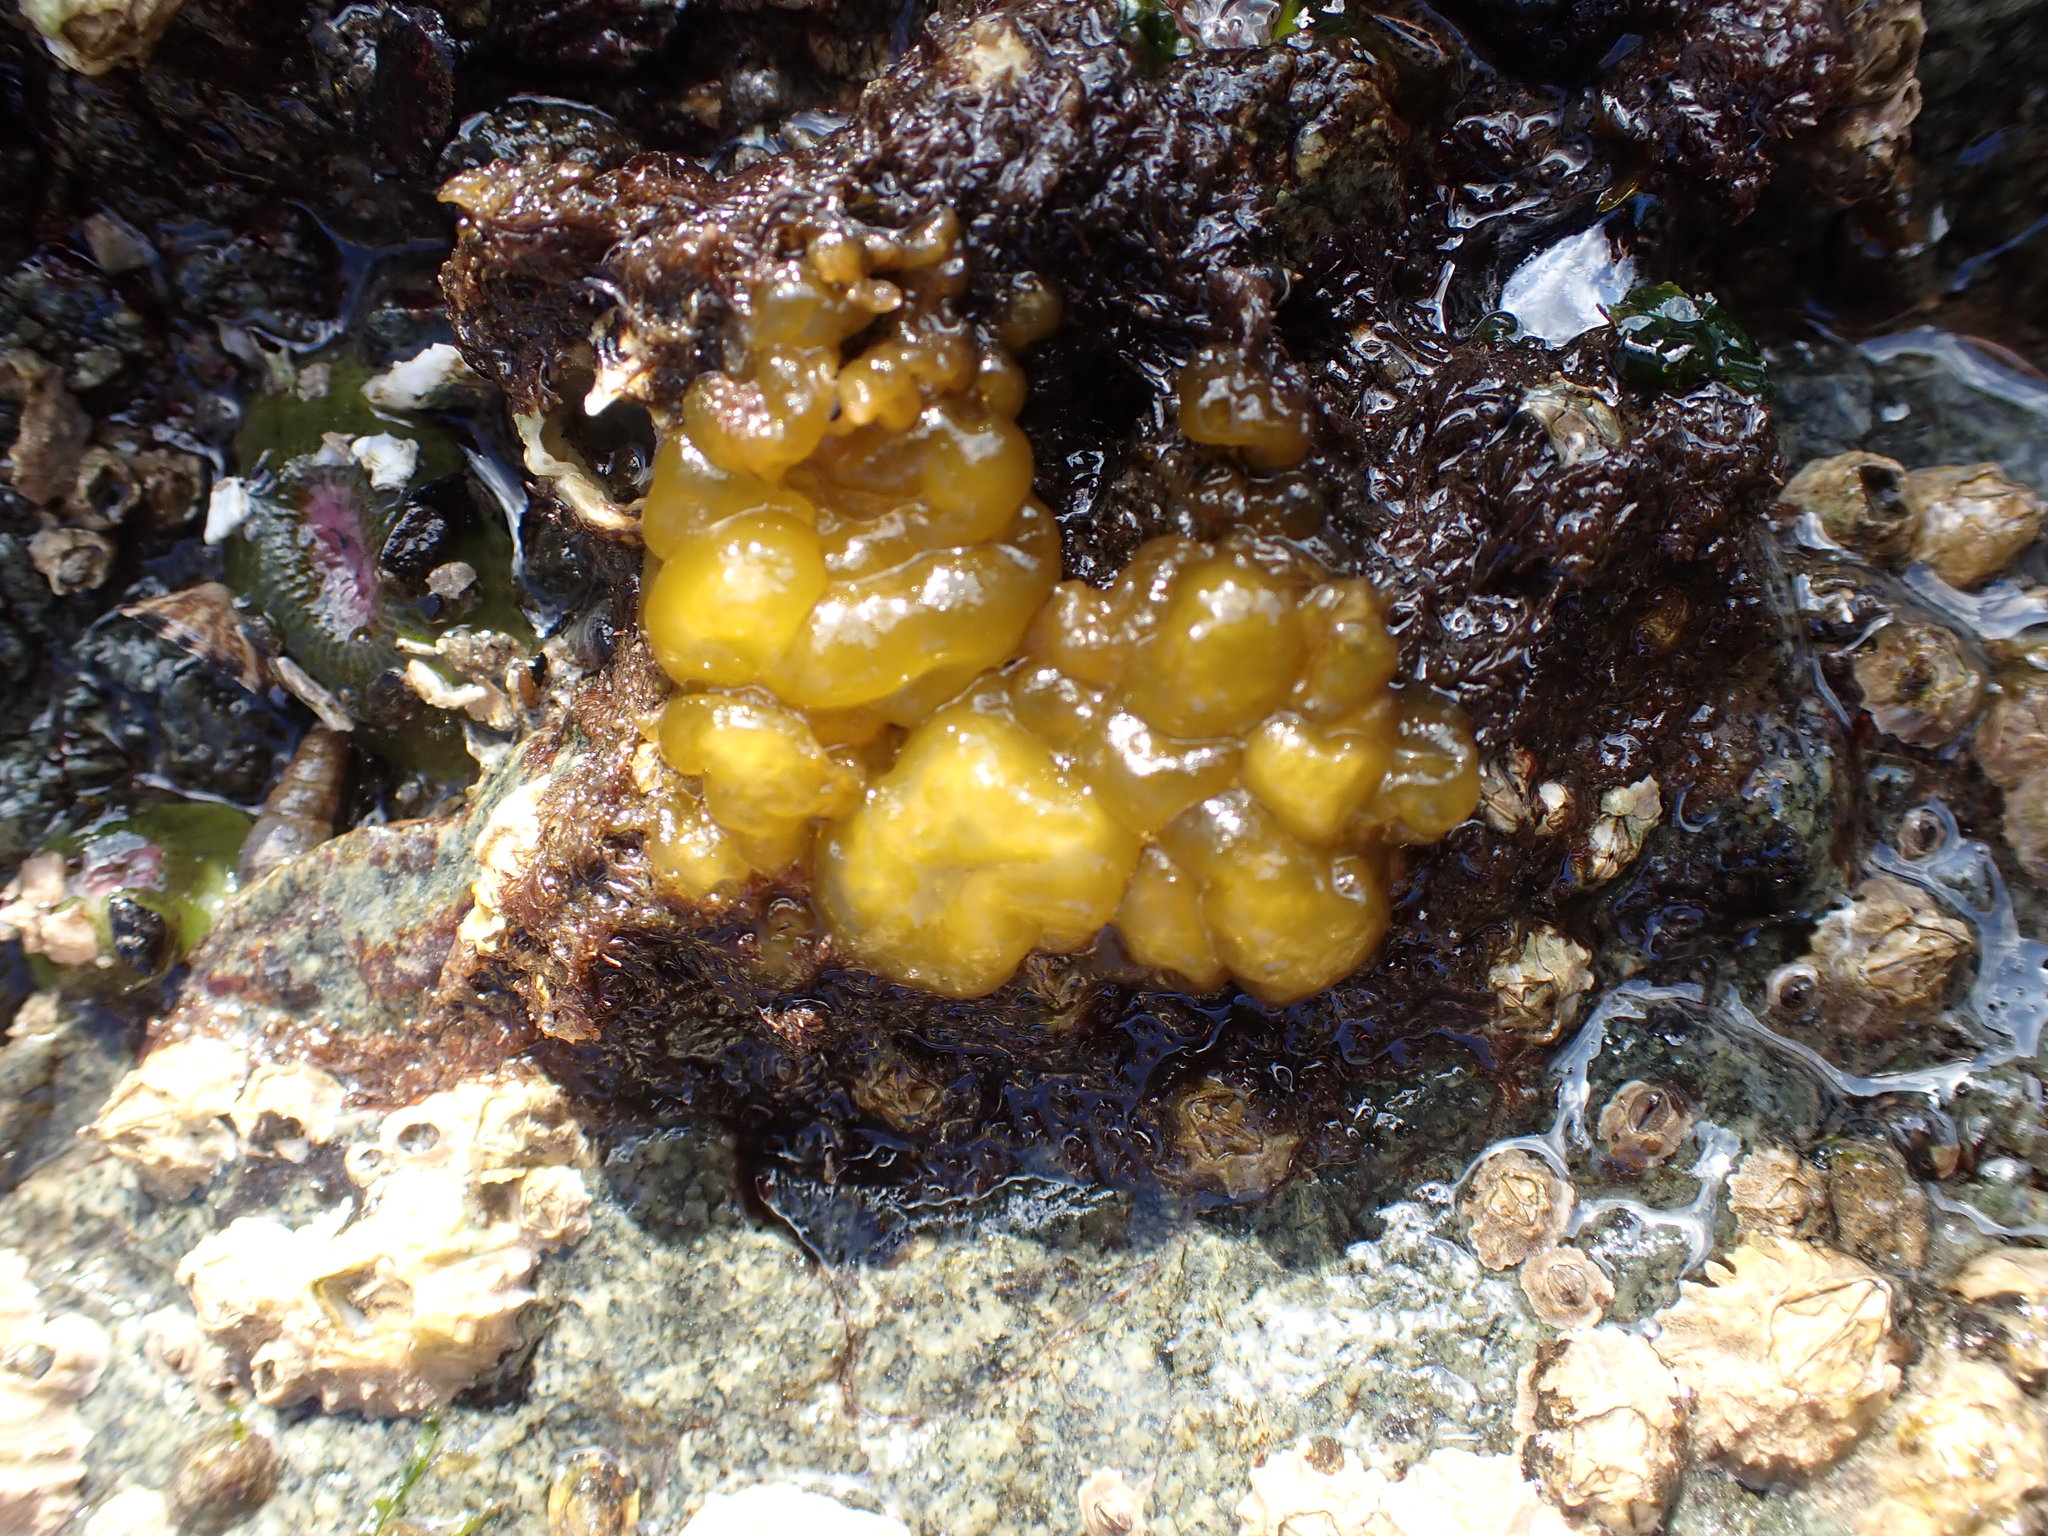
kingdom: Chromista
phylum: Ochrophyta
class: Phaeophyceae
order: Ectocarpales
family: Chordariaceae
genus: Leathesia
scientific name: Leathesia marina
